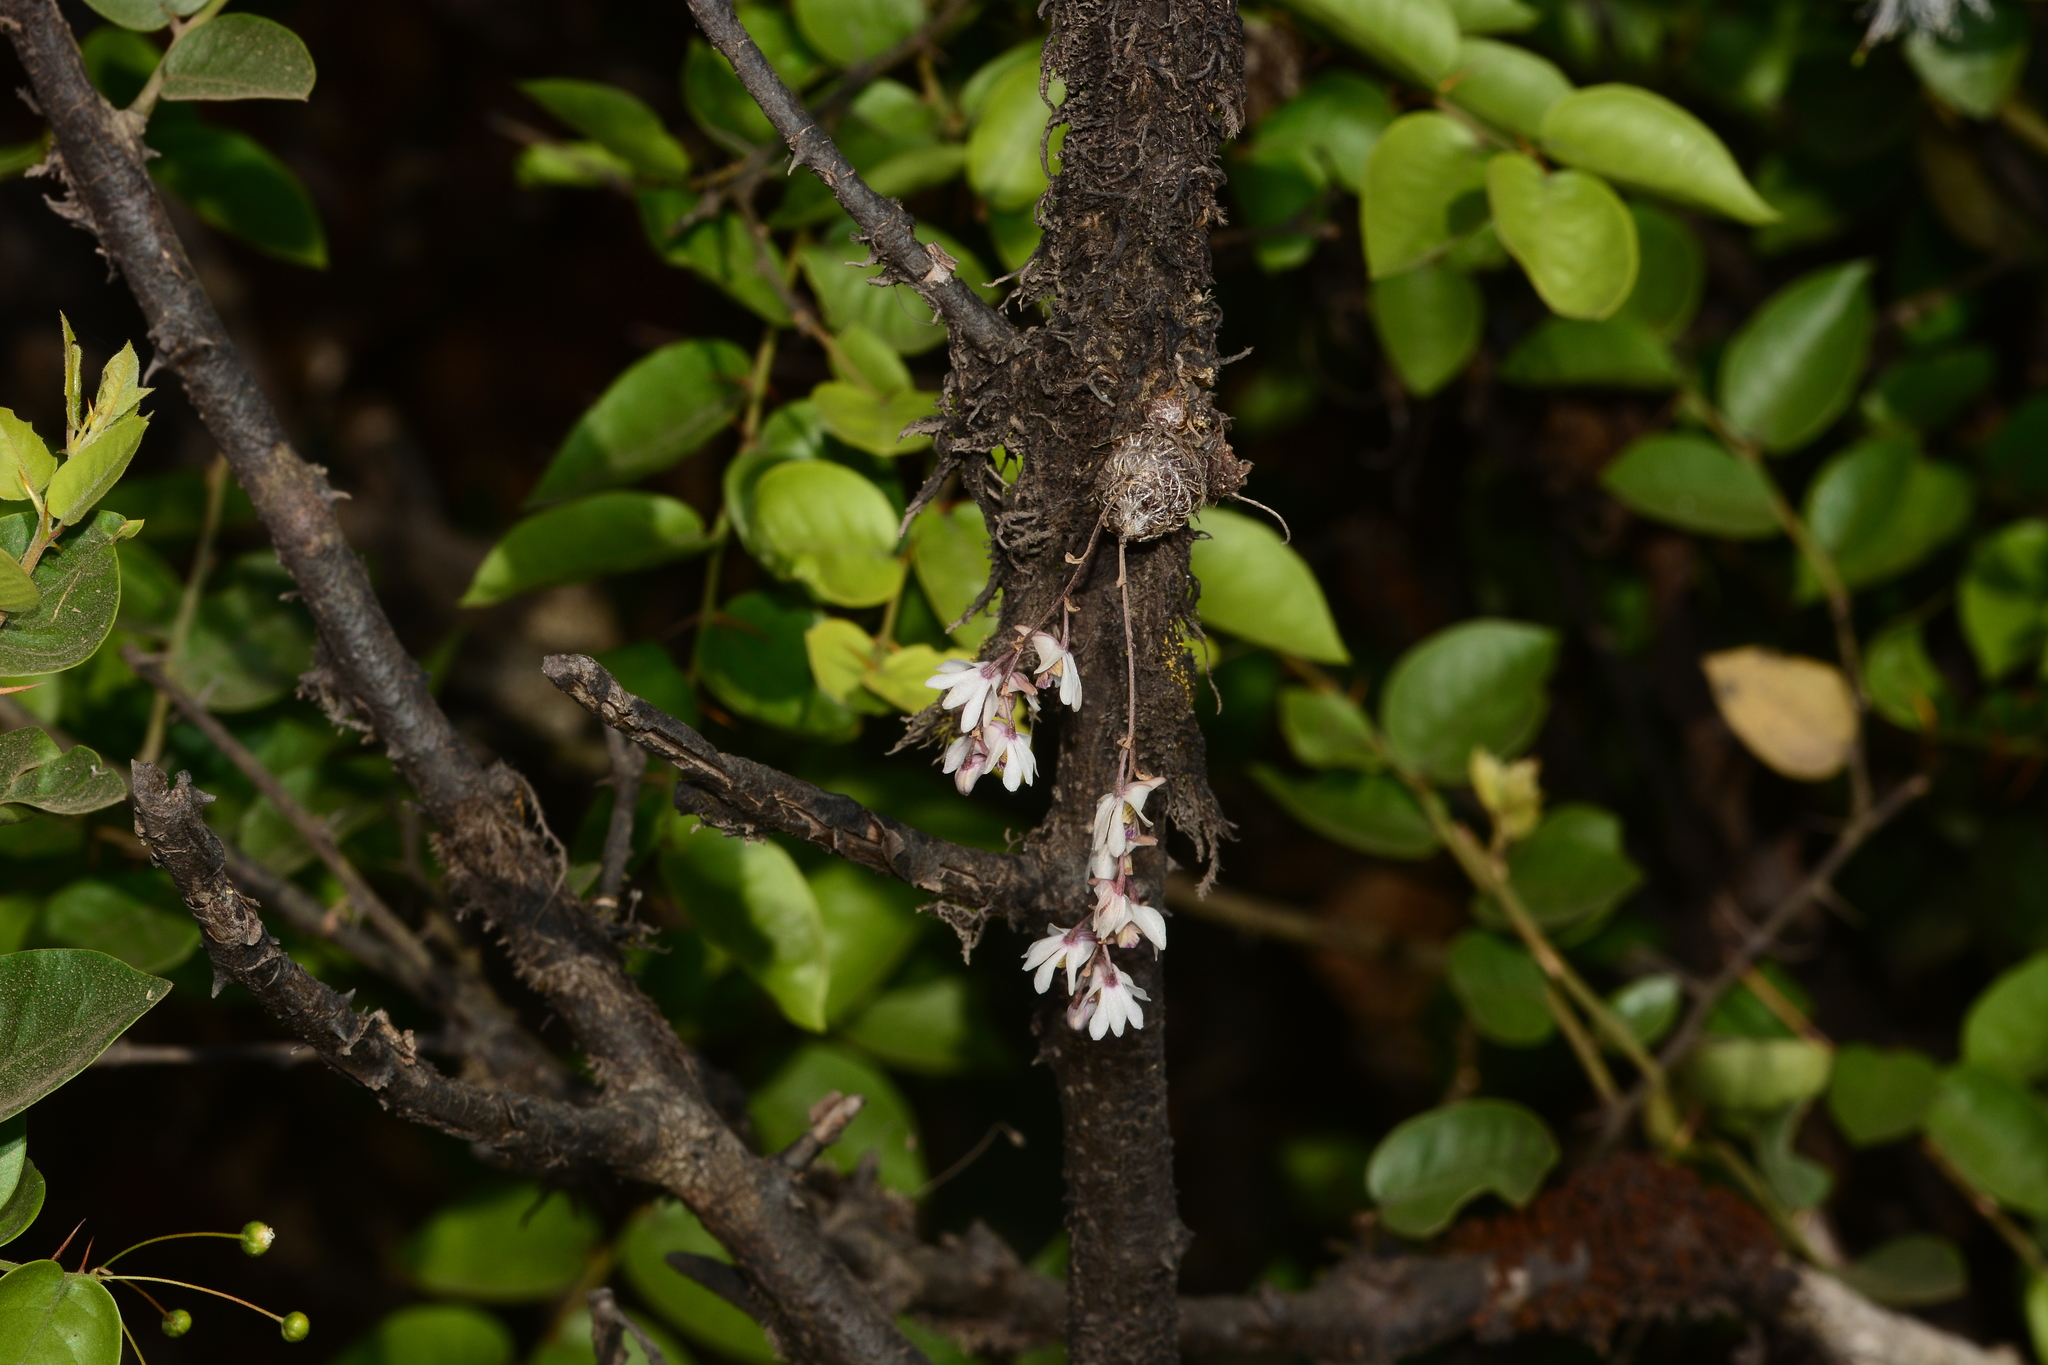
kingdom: Plantae
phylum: Tracheophyta
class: Liliopsida
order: Asparagales
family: Orchidaceae
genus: Dendrobium
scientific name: Dendrobium turbinatum
